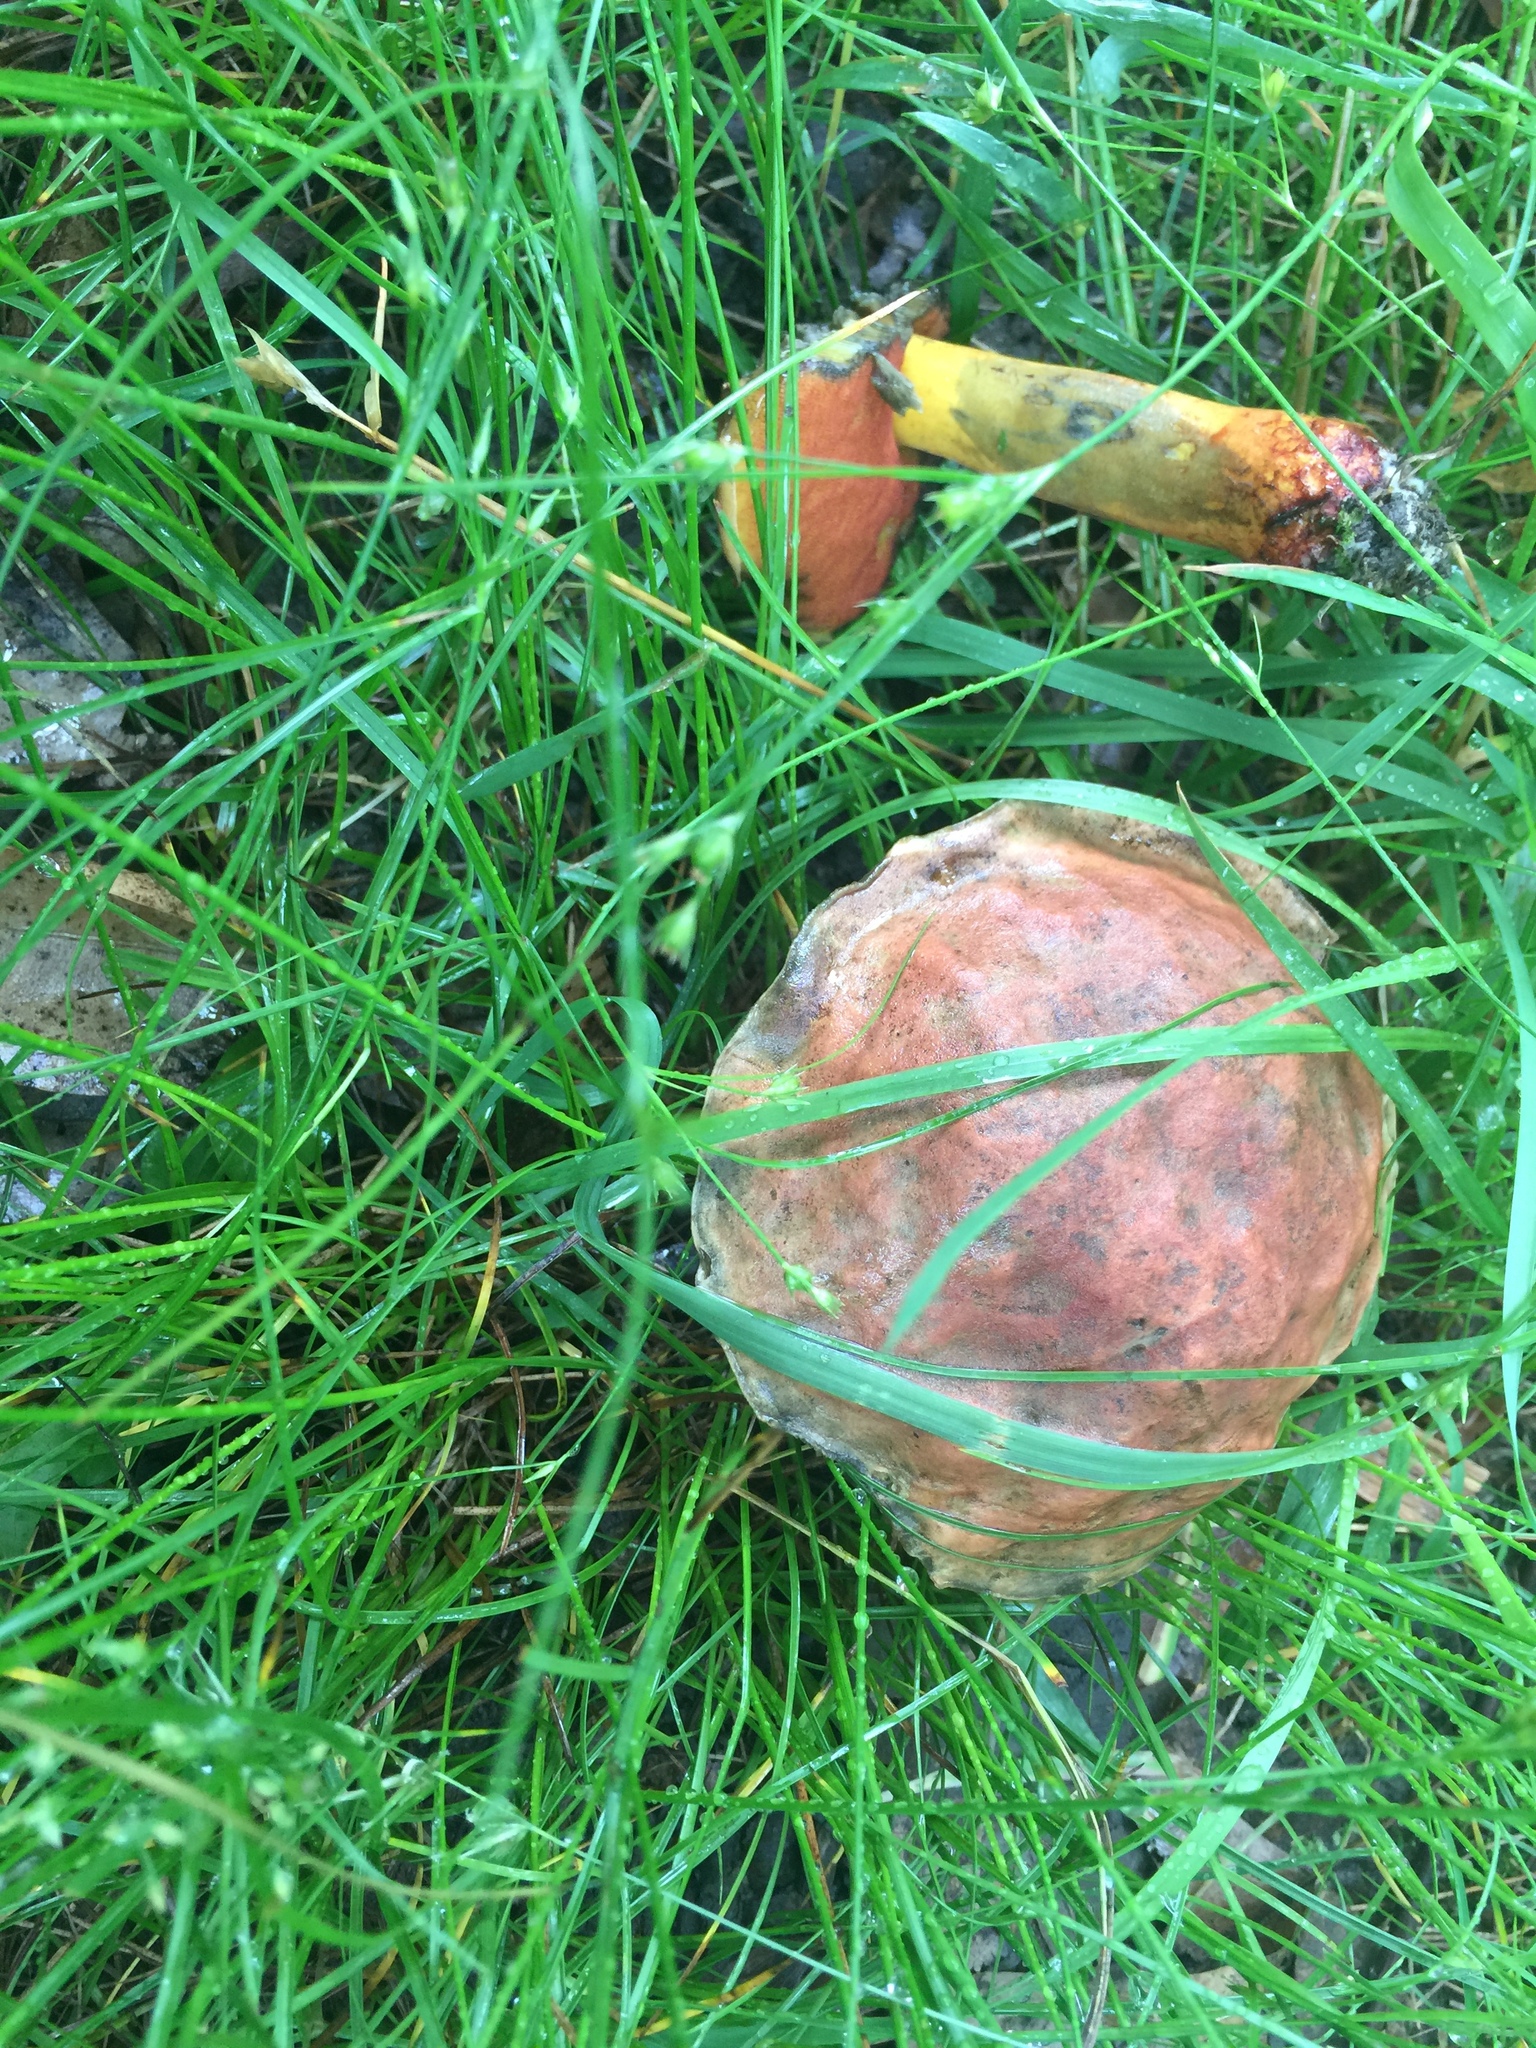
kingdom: Fungi
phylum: Basidiomycota
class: Agaricomycetes
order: Boletales
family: Boletaceae
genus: Boletus
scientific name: Boletus subvelutipes
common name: Red-mouth bolete
